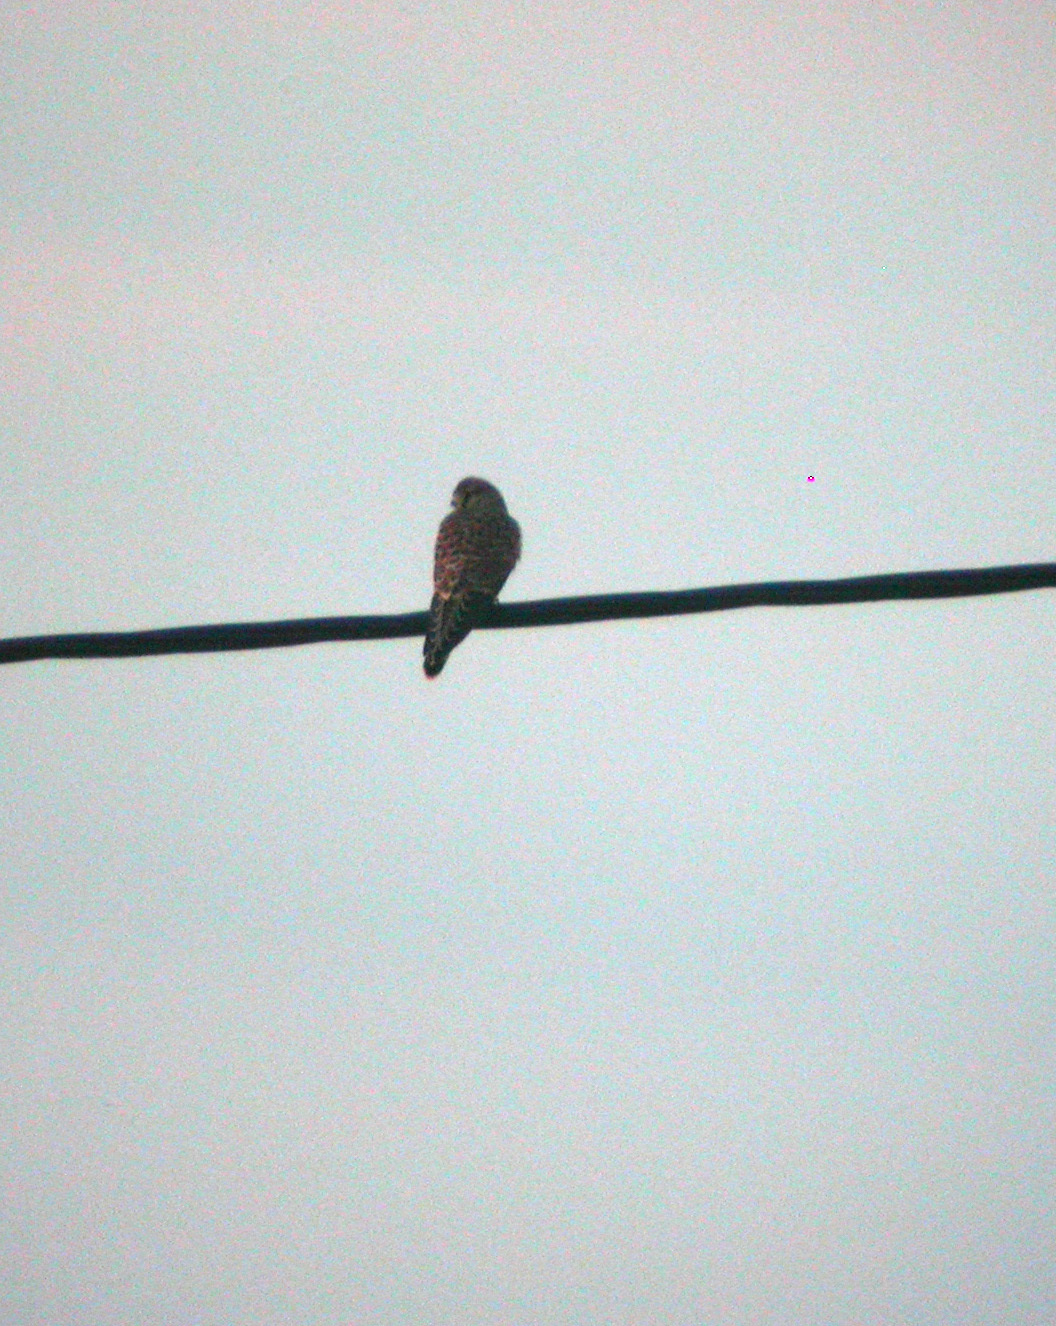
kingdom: Animalia
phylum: Chordata
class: Aves
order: Falconiformes
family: Falconidae
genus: Falco
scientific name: Falco tinnunculus
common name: Common kestrel
